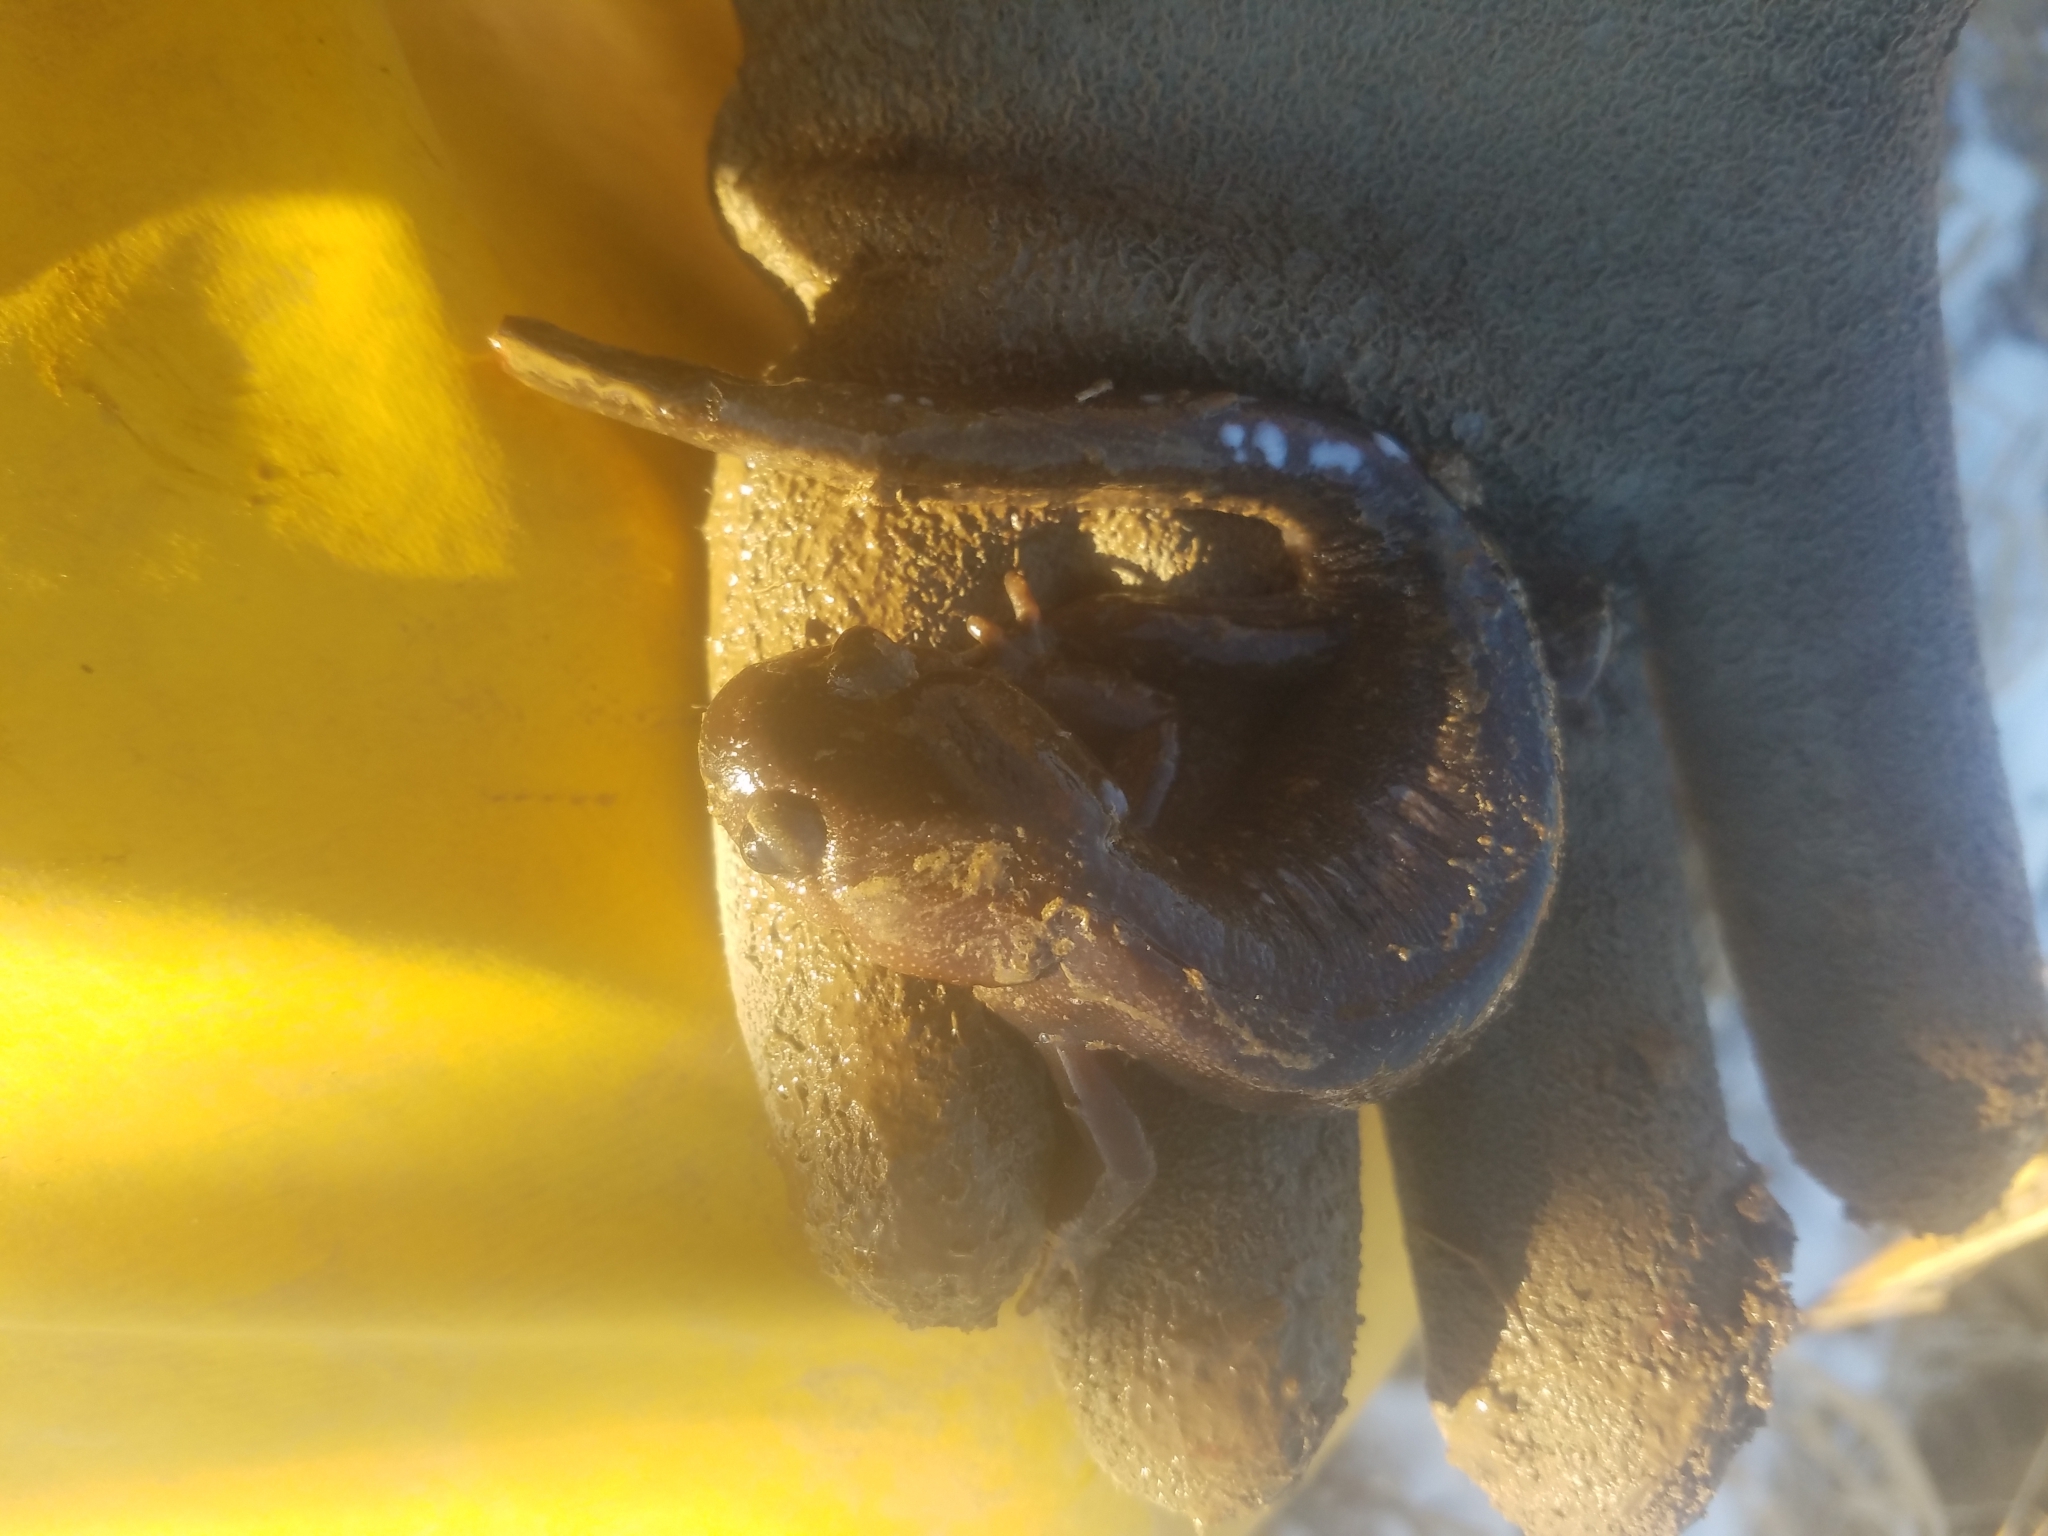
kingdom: Animalia
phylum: Chordata
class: Amphibia
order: Caudata
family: Ambystomatidae
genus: Ambystoma
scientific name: Ambystoma gracile
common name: Northwestern salamander
